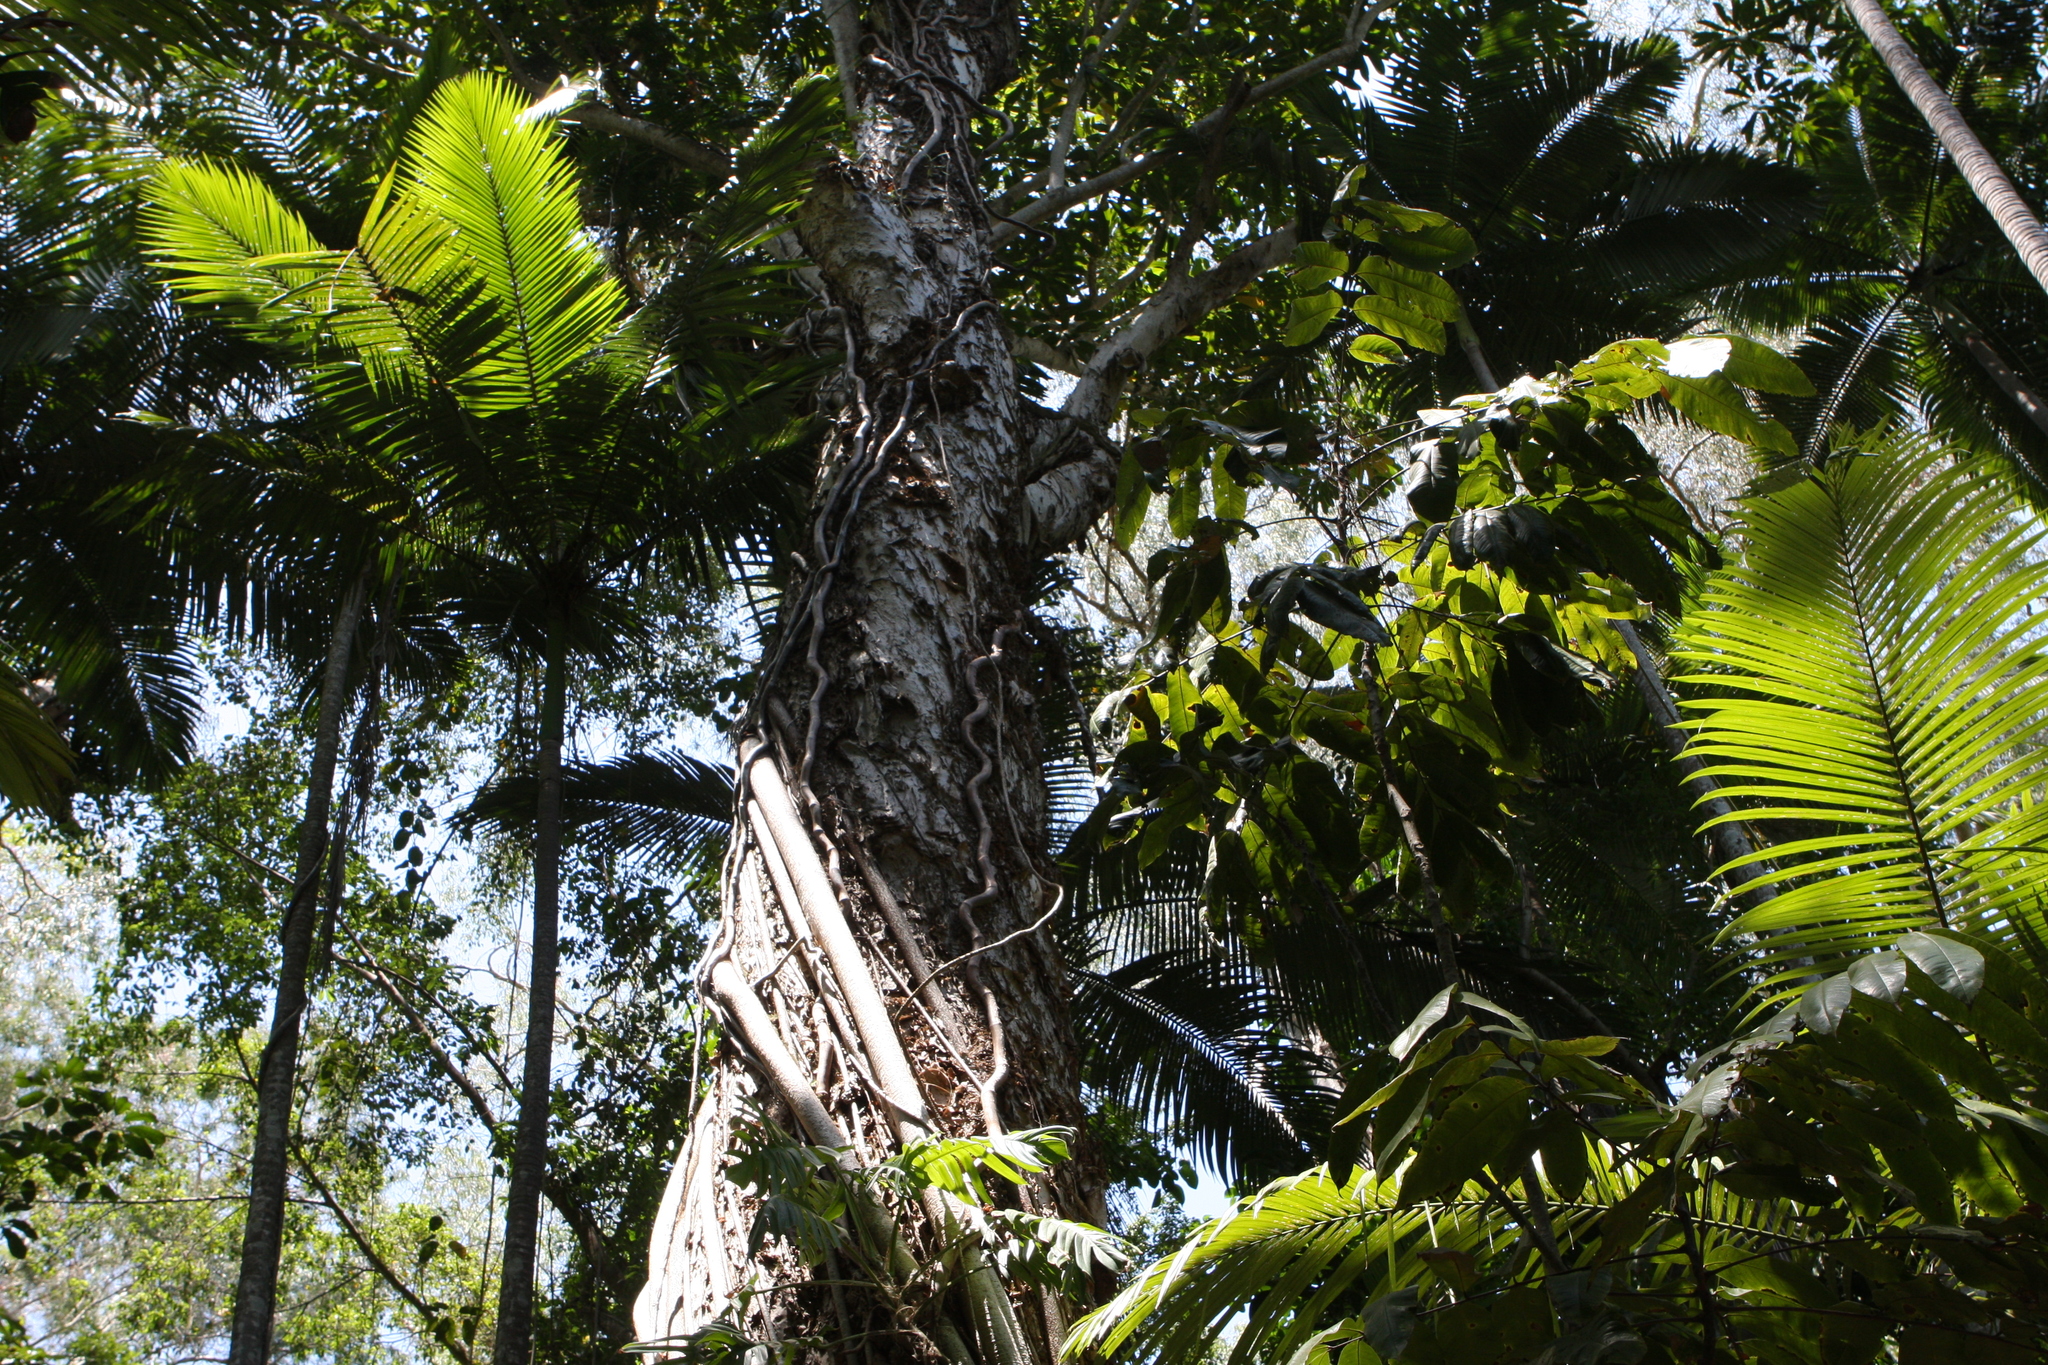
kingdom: Plantae
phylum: Tracheophyta
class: Magnoliopsida
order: Apiales
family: Araliaceae
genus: Heptapleurum
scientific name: Heptapleurum actinophyllum
